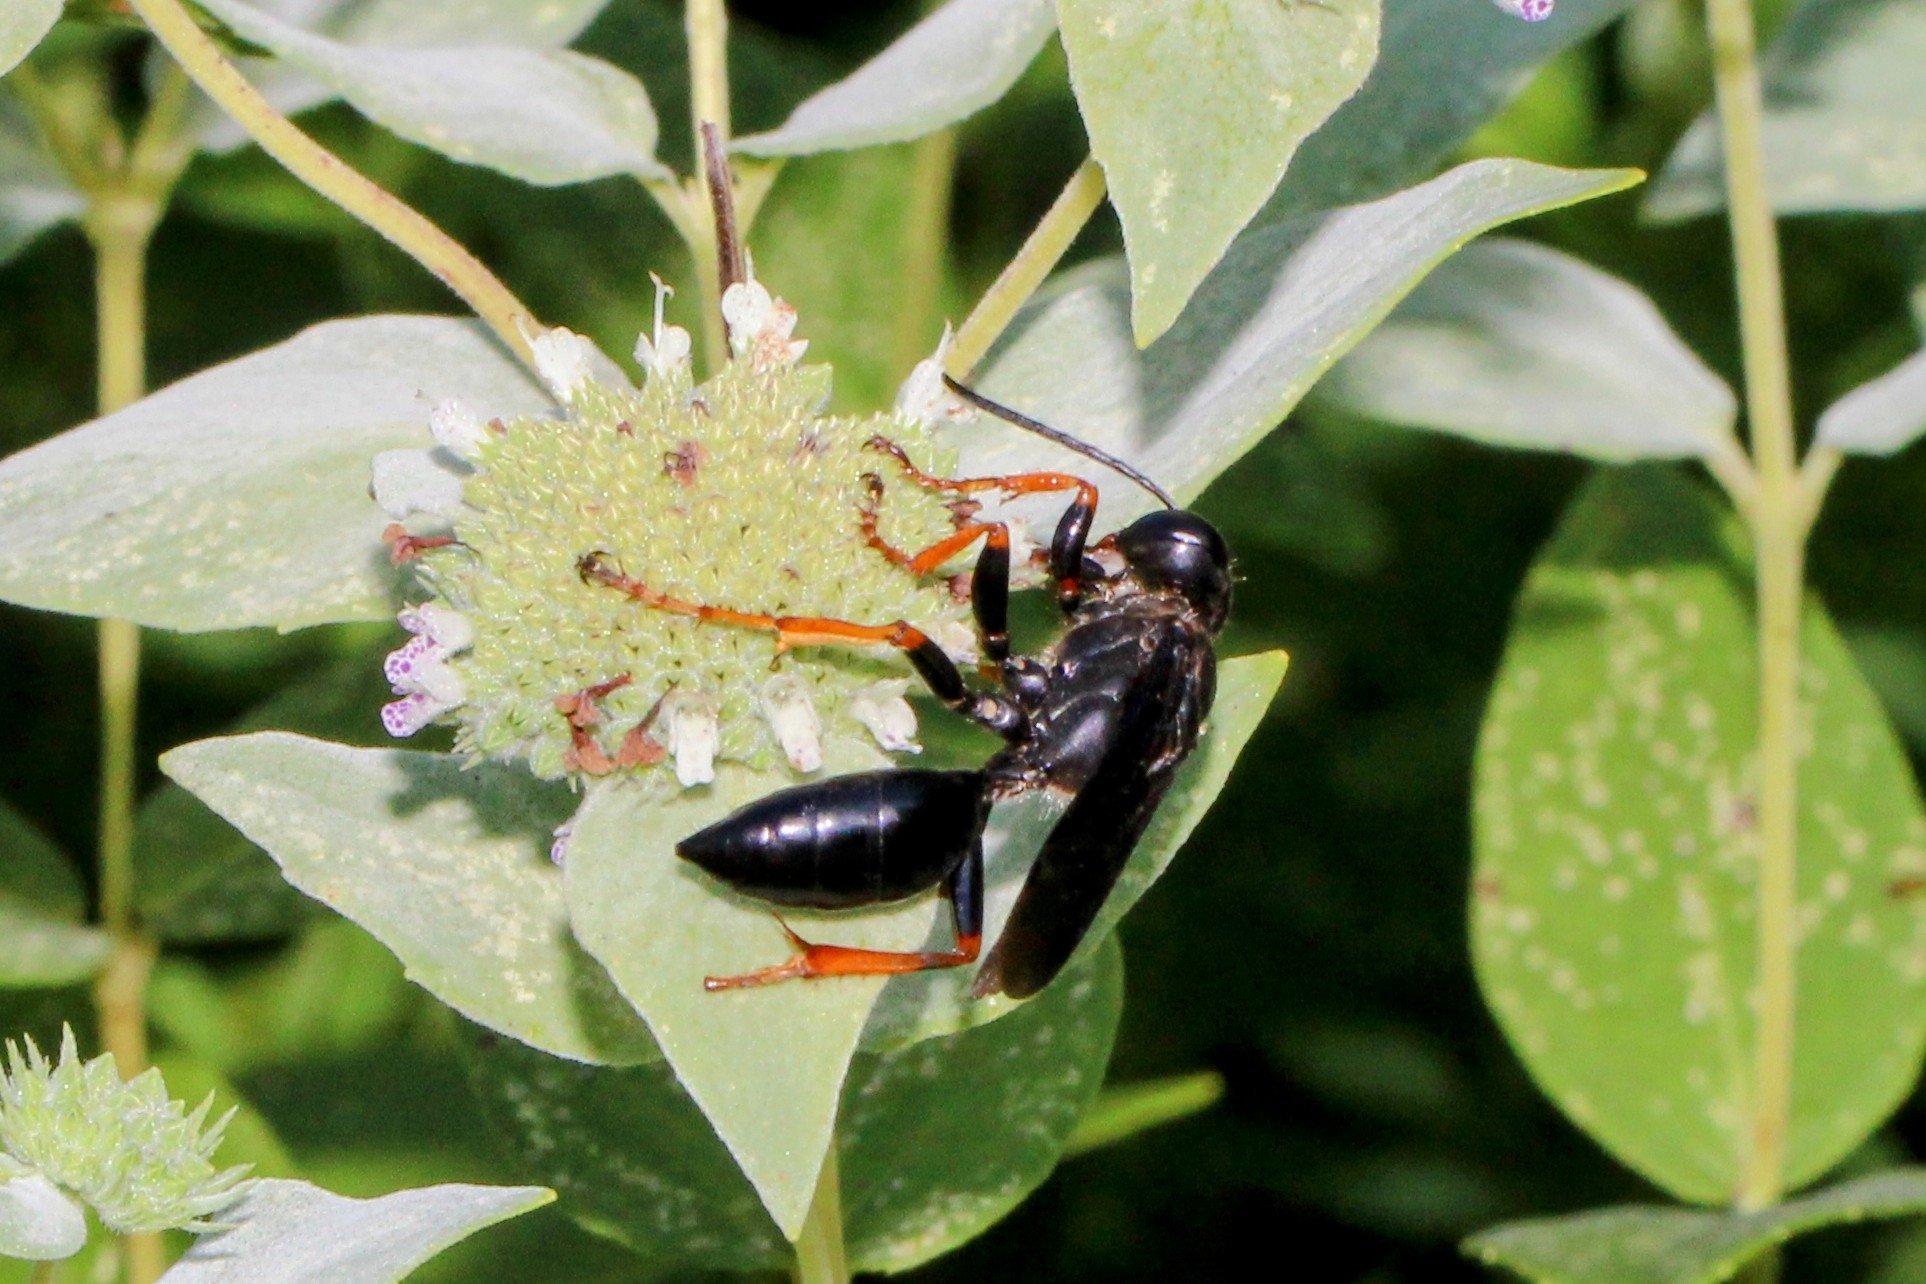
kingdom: Animalia
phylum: Arthropoda
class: Insecta
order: Hymenoptera
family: Sphecidae
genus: Sphex
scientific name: Sphex nudus
